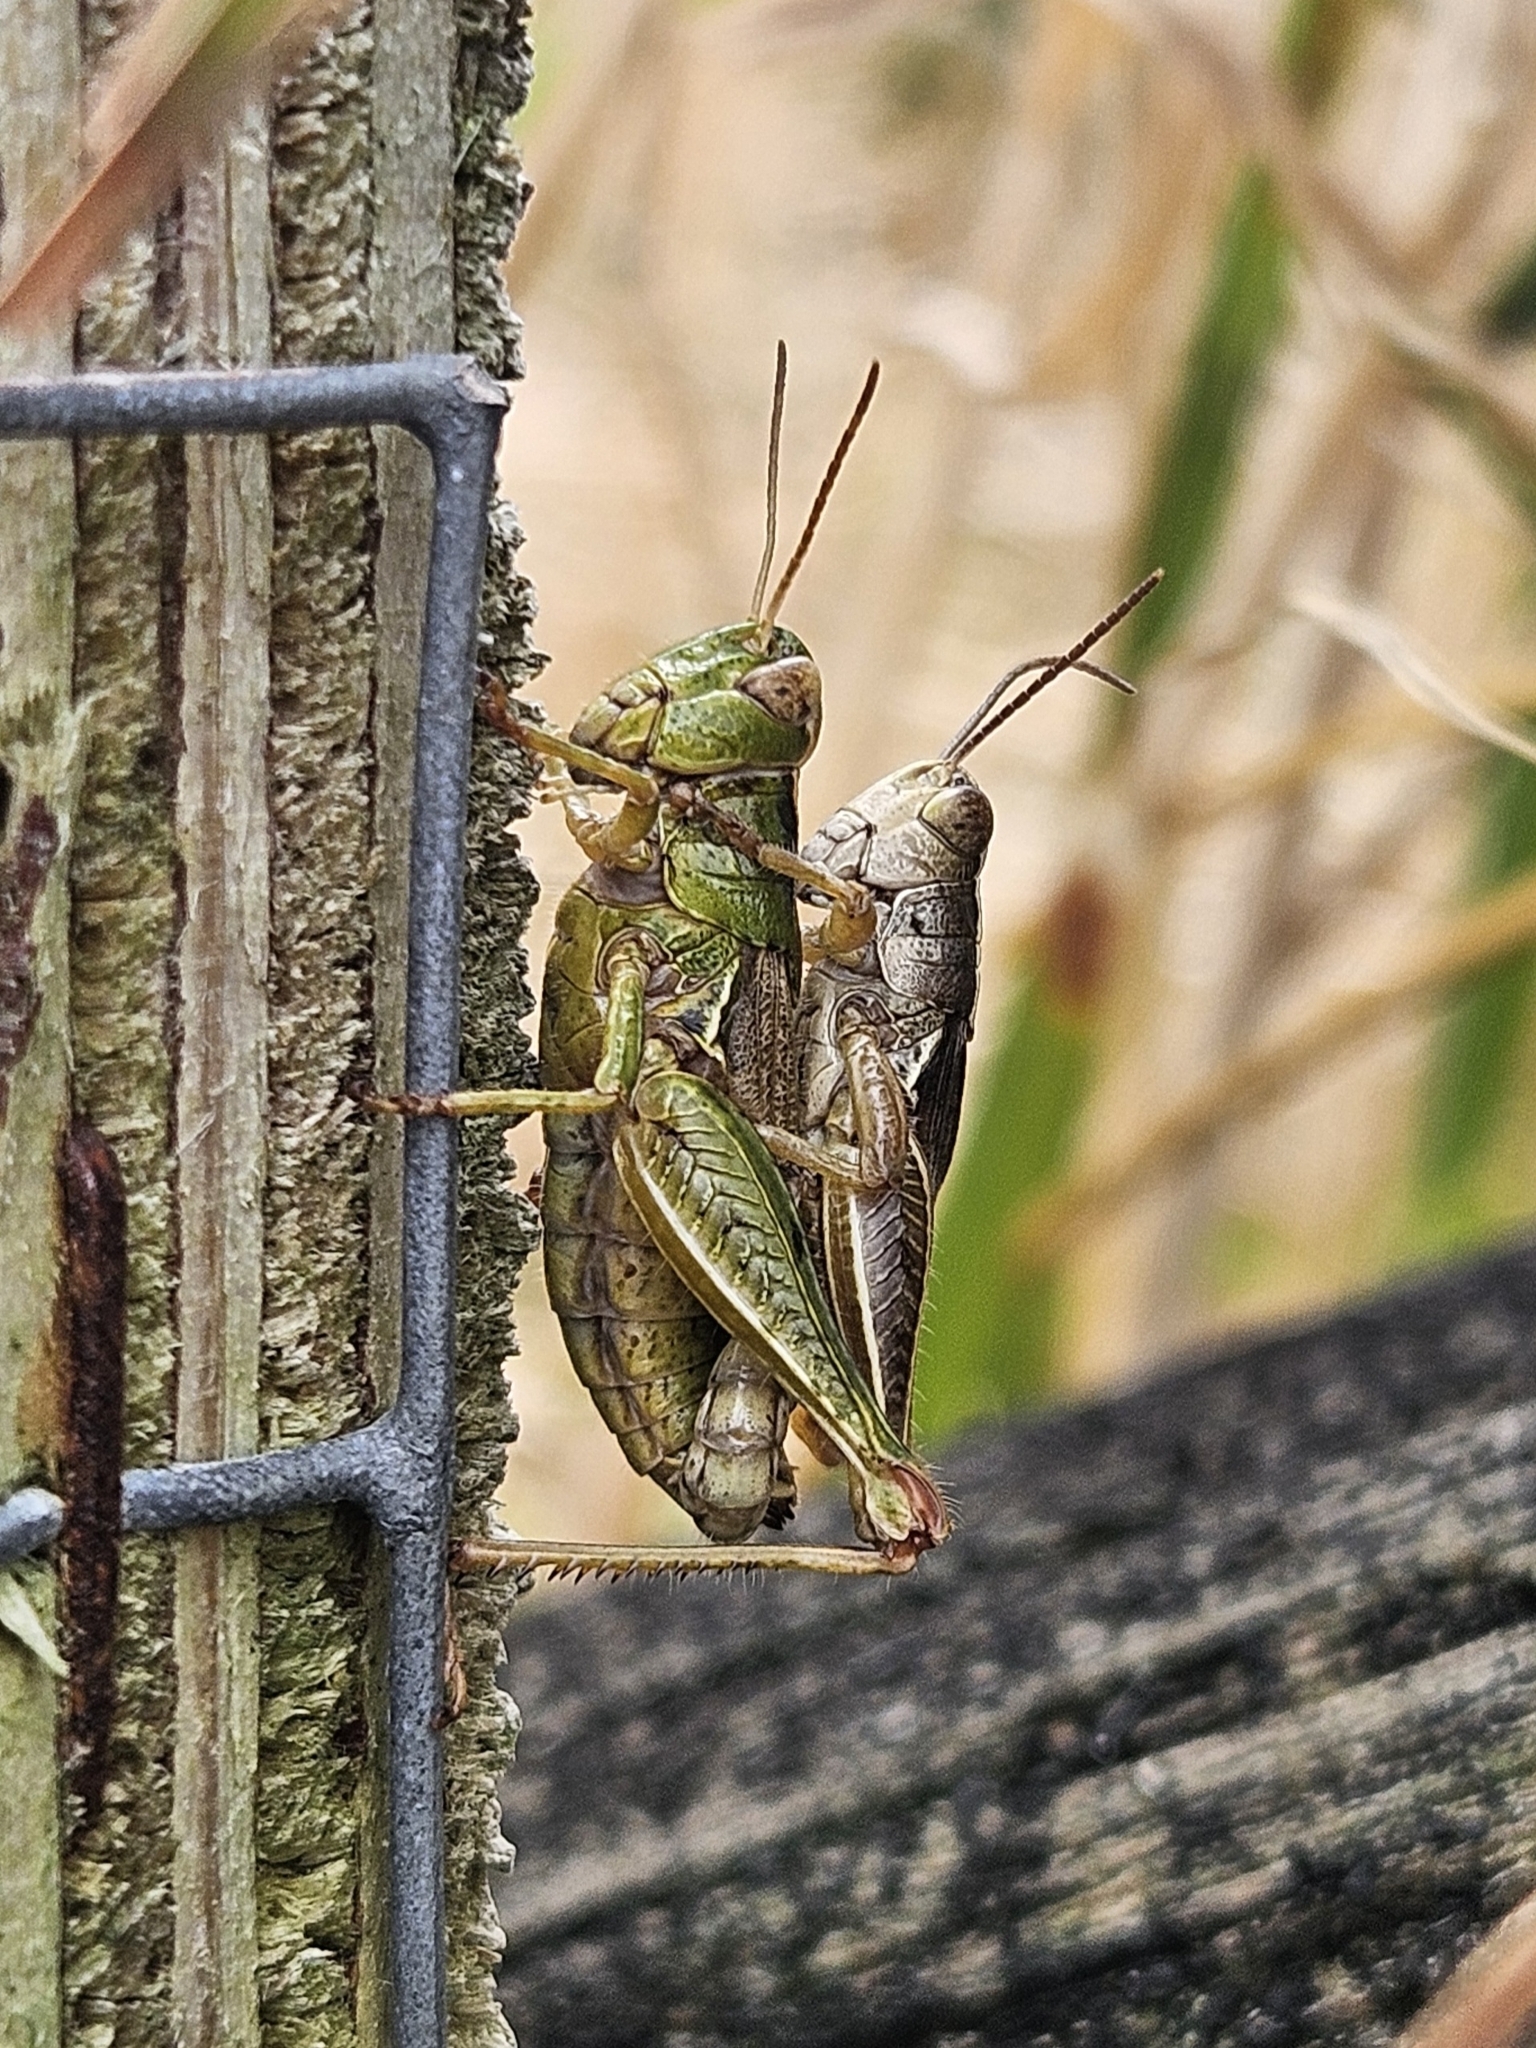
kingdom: Animalia
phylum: Arthropoda
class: Insecta
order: Orthoptera
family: Acrididae
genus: Phaulacridium
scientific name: Phaulacridium marginale
